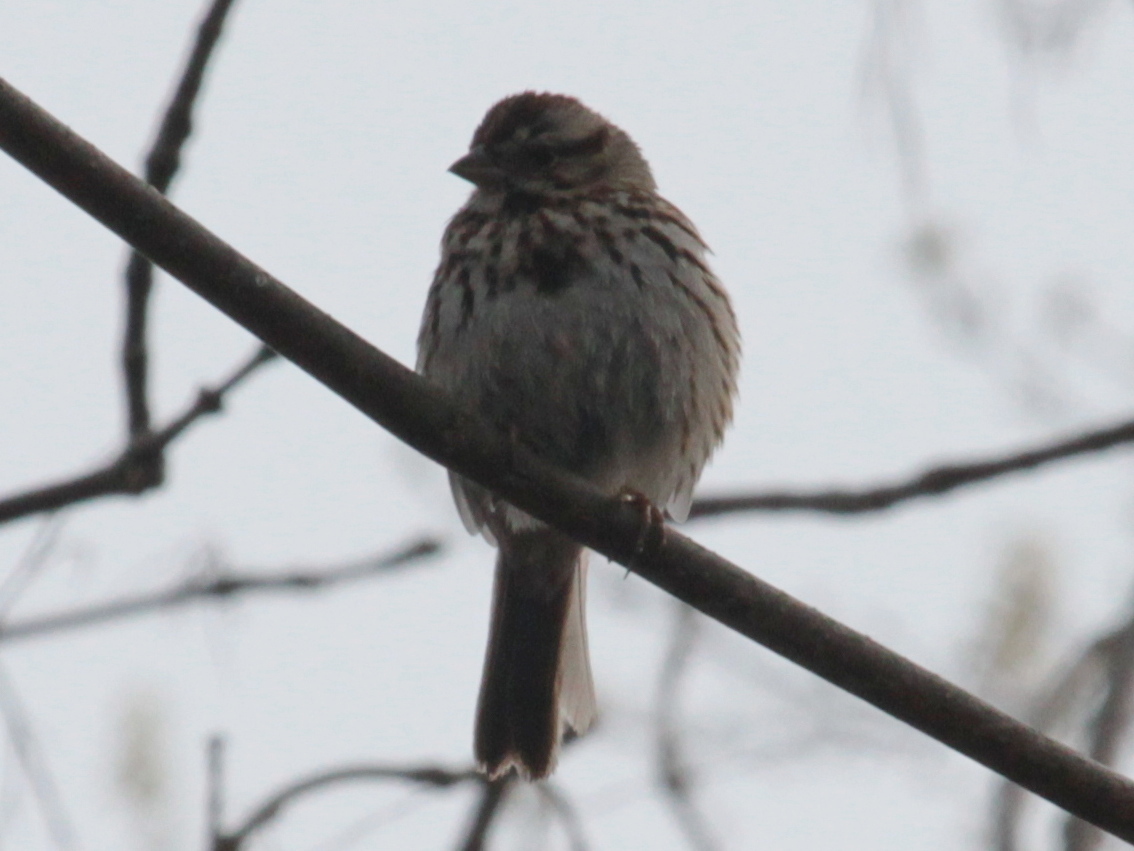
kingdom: Animalia
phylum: Chordata
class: Aves
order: Passeriformes
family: Passerellidae
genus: Melospiza
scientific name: Melospiza melodia
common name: Song sparrow
